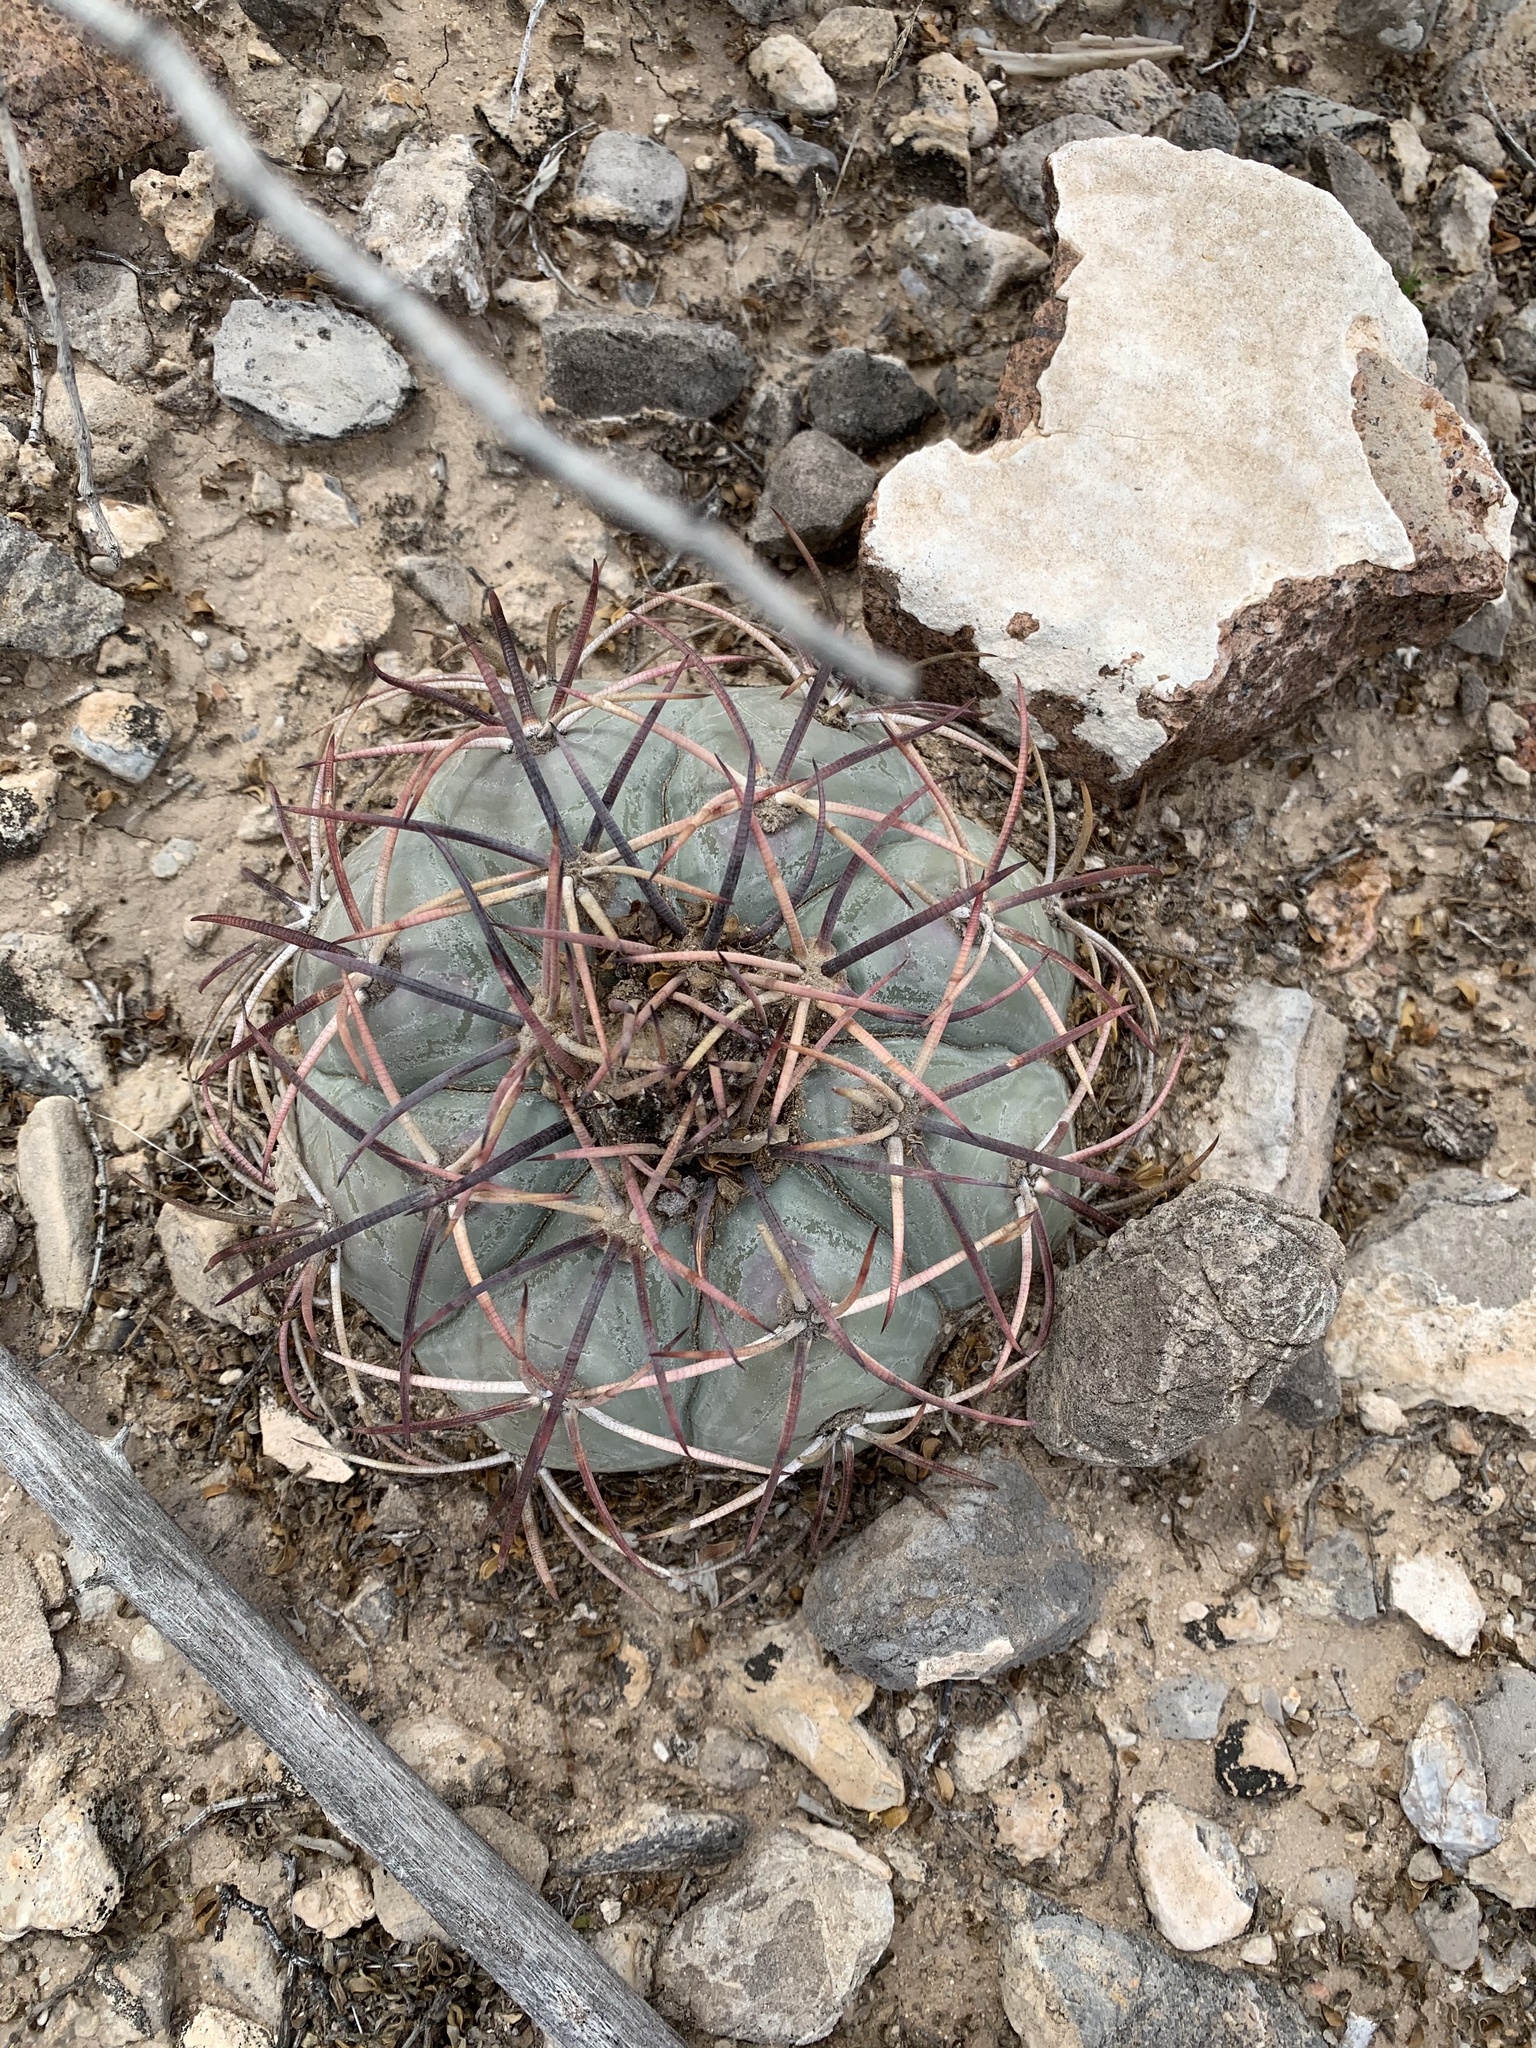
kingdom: Plantae
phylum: Tracheophyta
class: Magnoliopsida
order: Caryophyllales
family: Cactaceae
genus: Echinocactus
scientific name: Echinocactus horizonthalonius
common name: Devilshead
